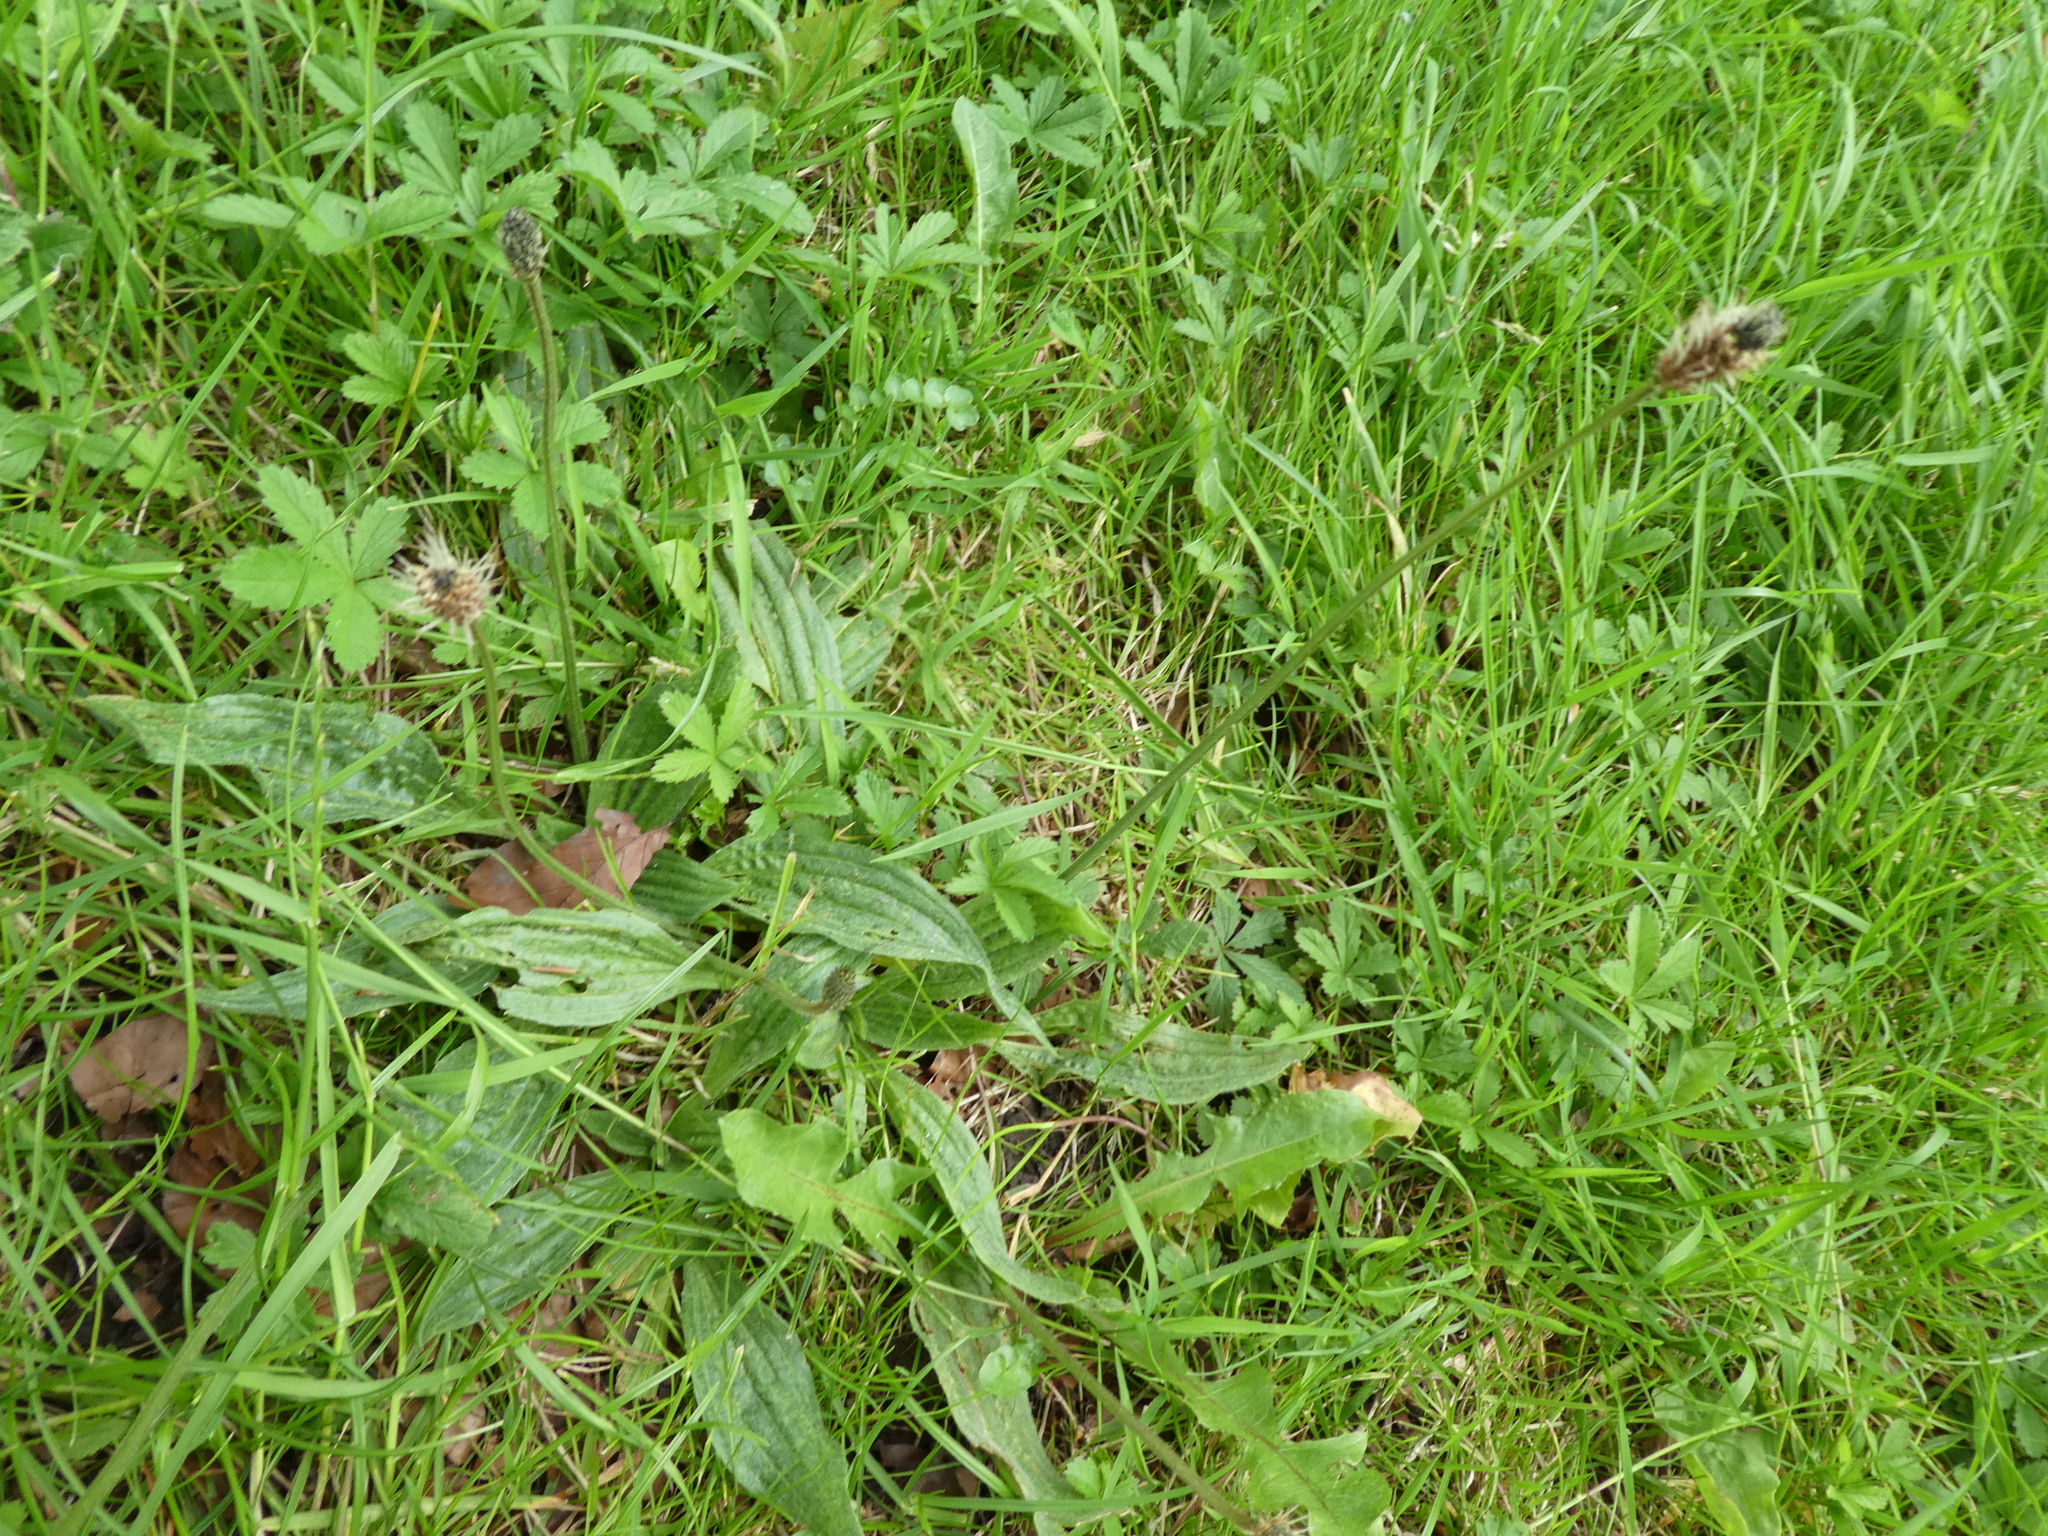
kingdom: Plantae
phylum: Tracheophyta
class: Magnoliopsida
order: Lamiales
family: Plantaginaceae
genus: Plantago
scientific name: Plantago lanceolata
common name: Ribwort plantain
